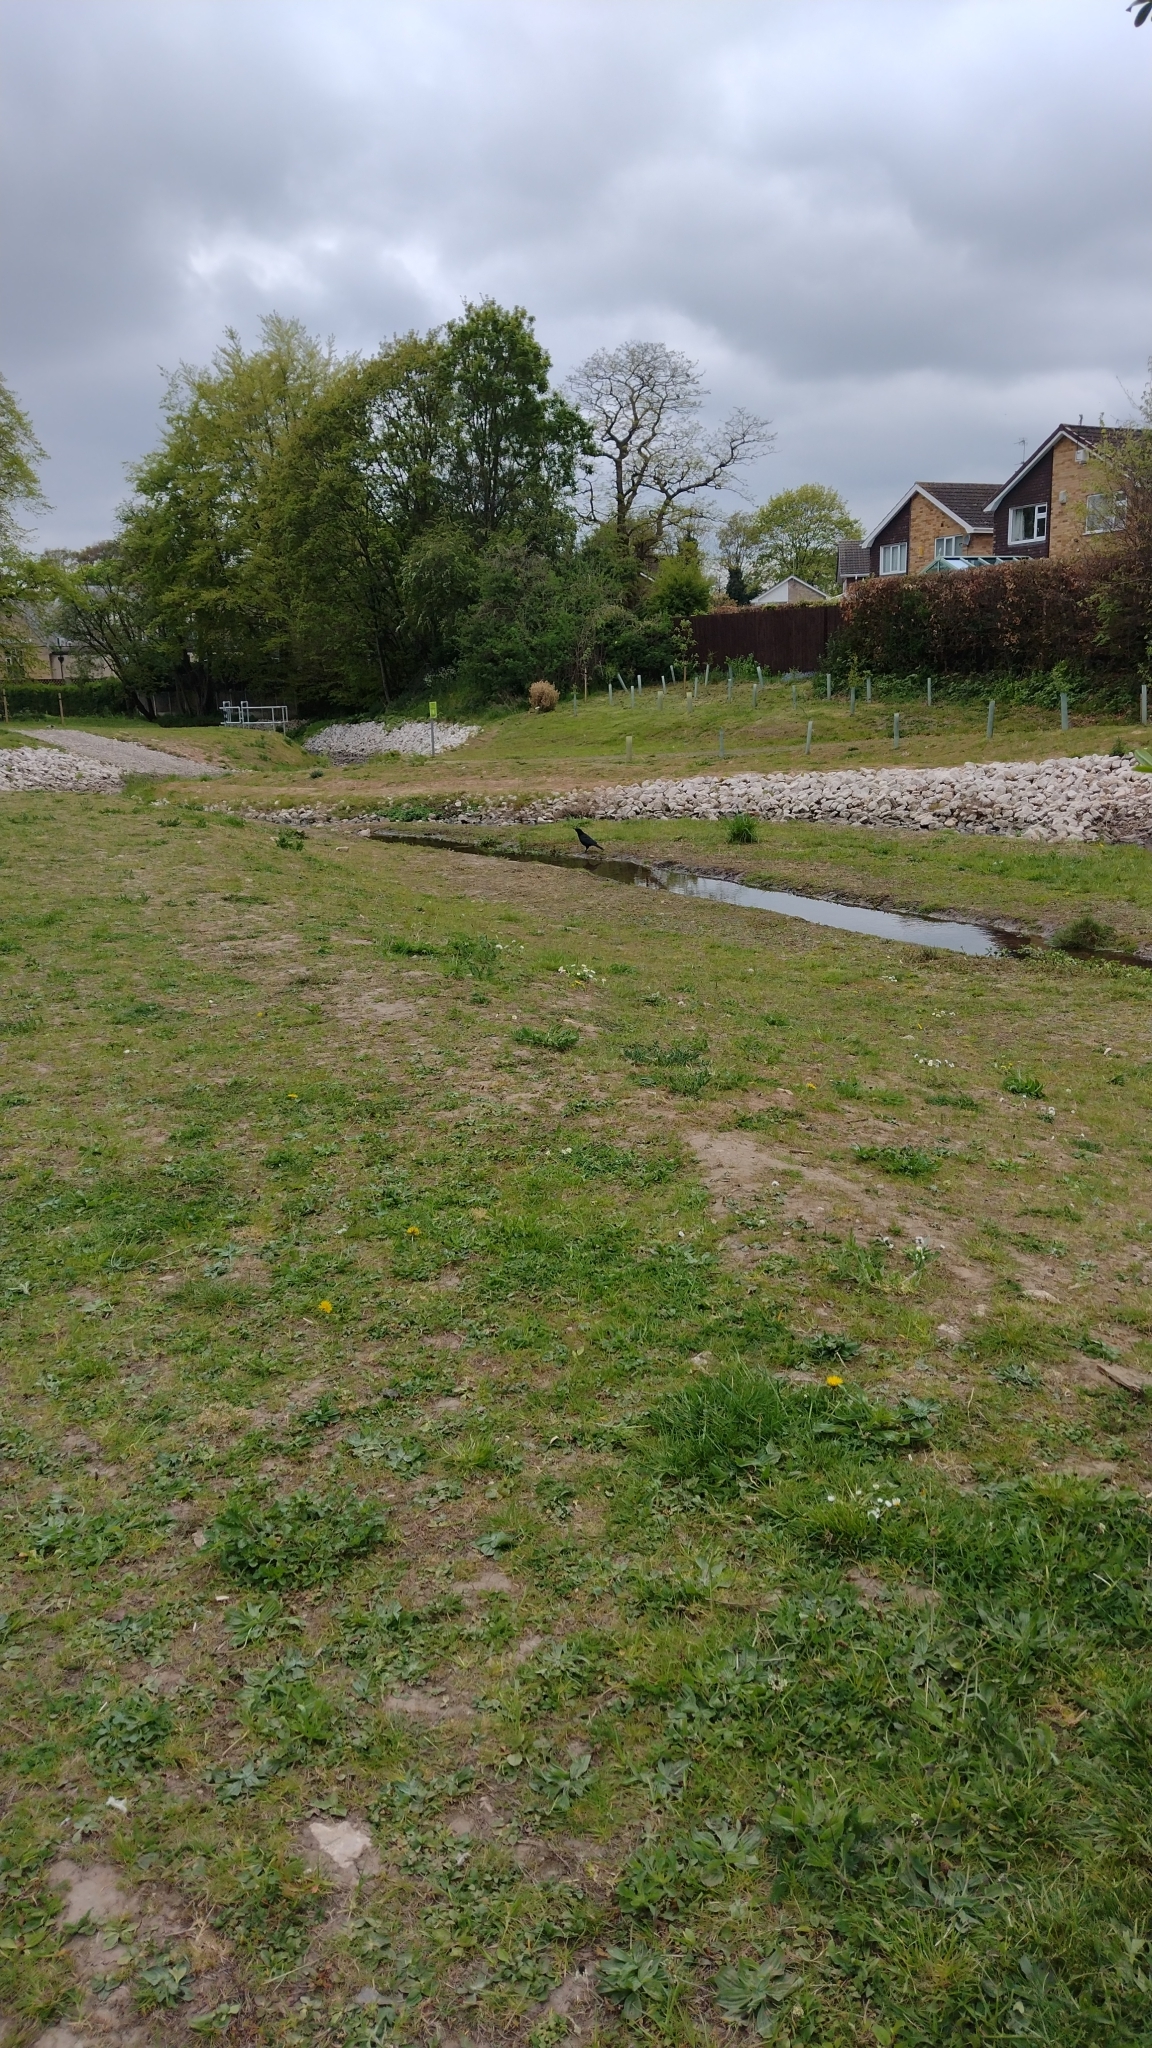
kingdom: Animalia
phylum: Chordata
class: Aves
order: Passeriformes
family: Corvidae
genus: Corvus
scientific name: Corvus corone
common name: Carrion crow
